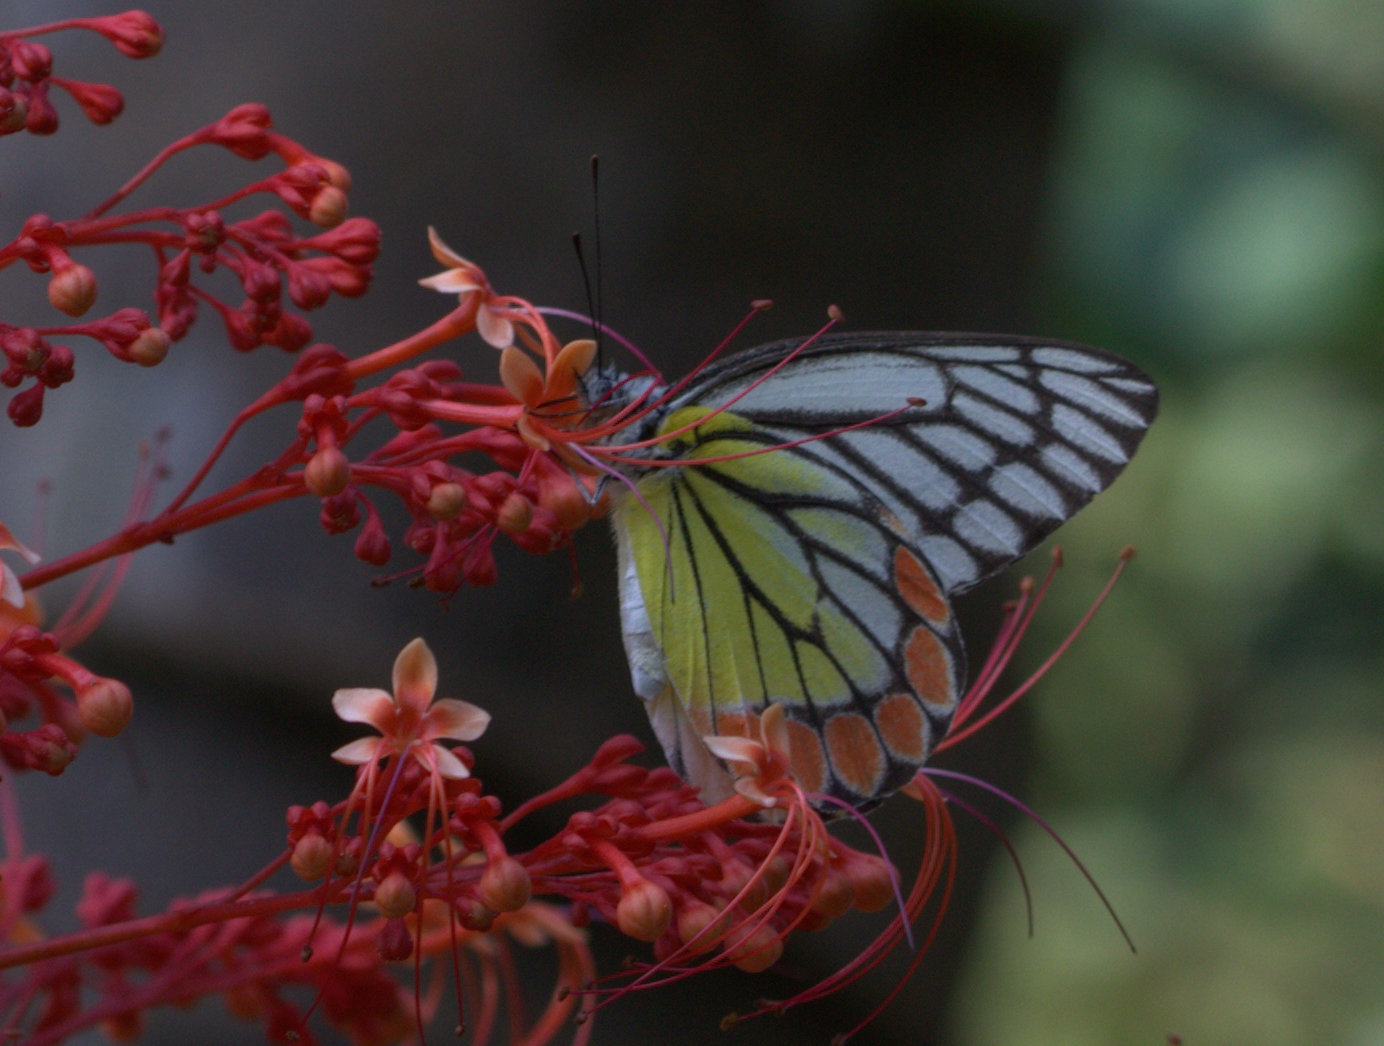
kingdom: Animalia
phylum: Arthropoda
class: Insecta
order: Lepidoptera
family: Pieridae
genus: Delias
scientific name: Delias eucharis
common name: Common jezebel
